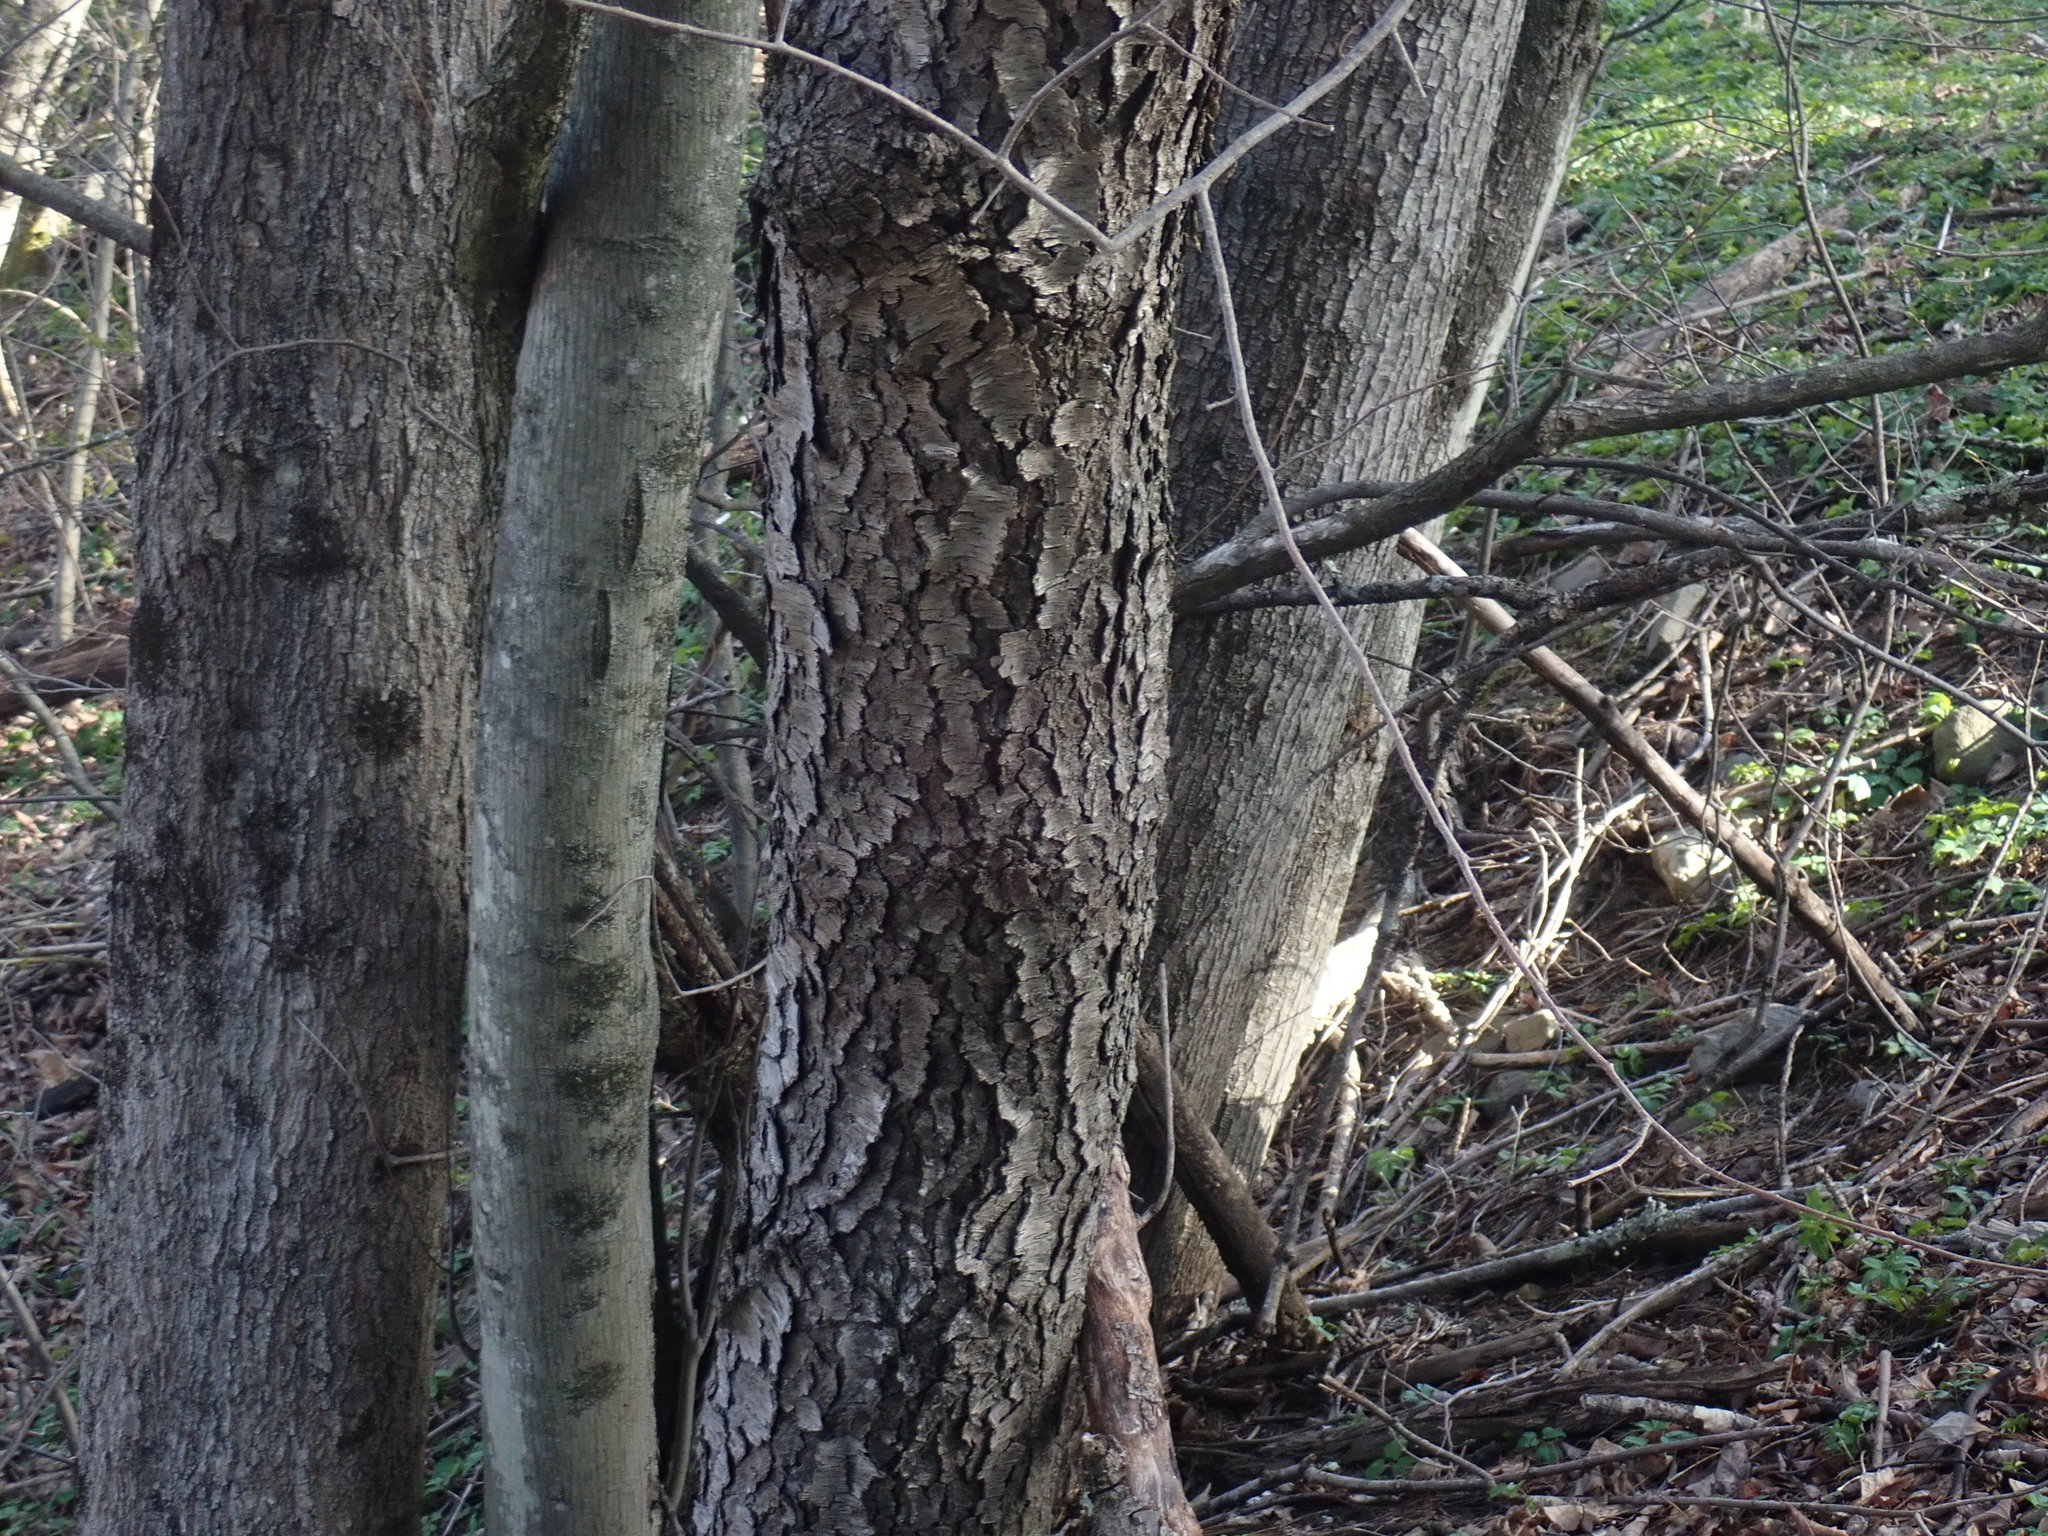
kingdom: Plantae
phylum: Tracheophyta
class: Magnoliopsida
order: Rosales
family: Rosaceae
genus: Prunus
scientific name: Prunus serotina
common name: Black cherry
